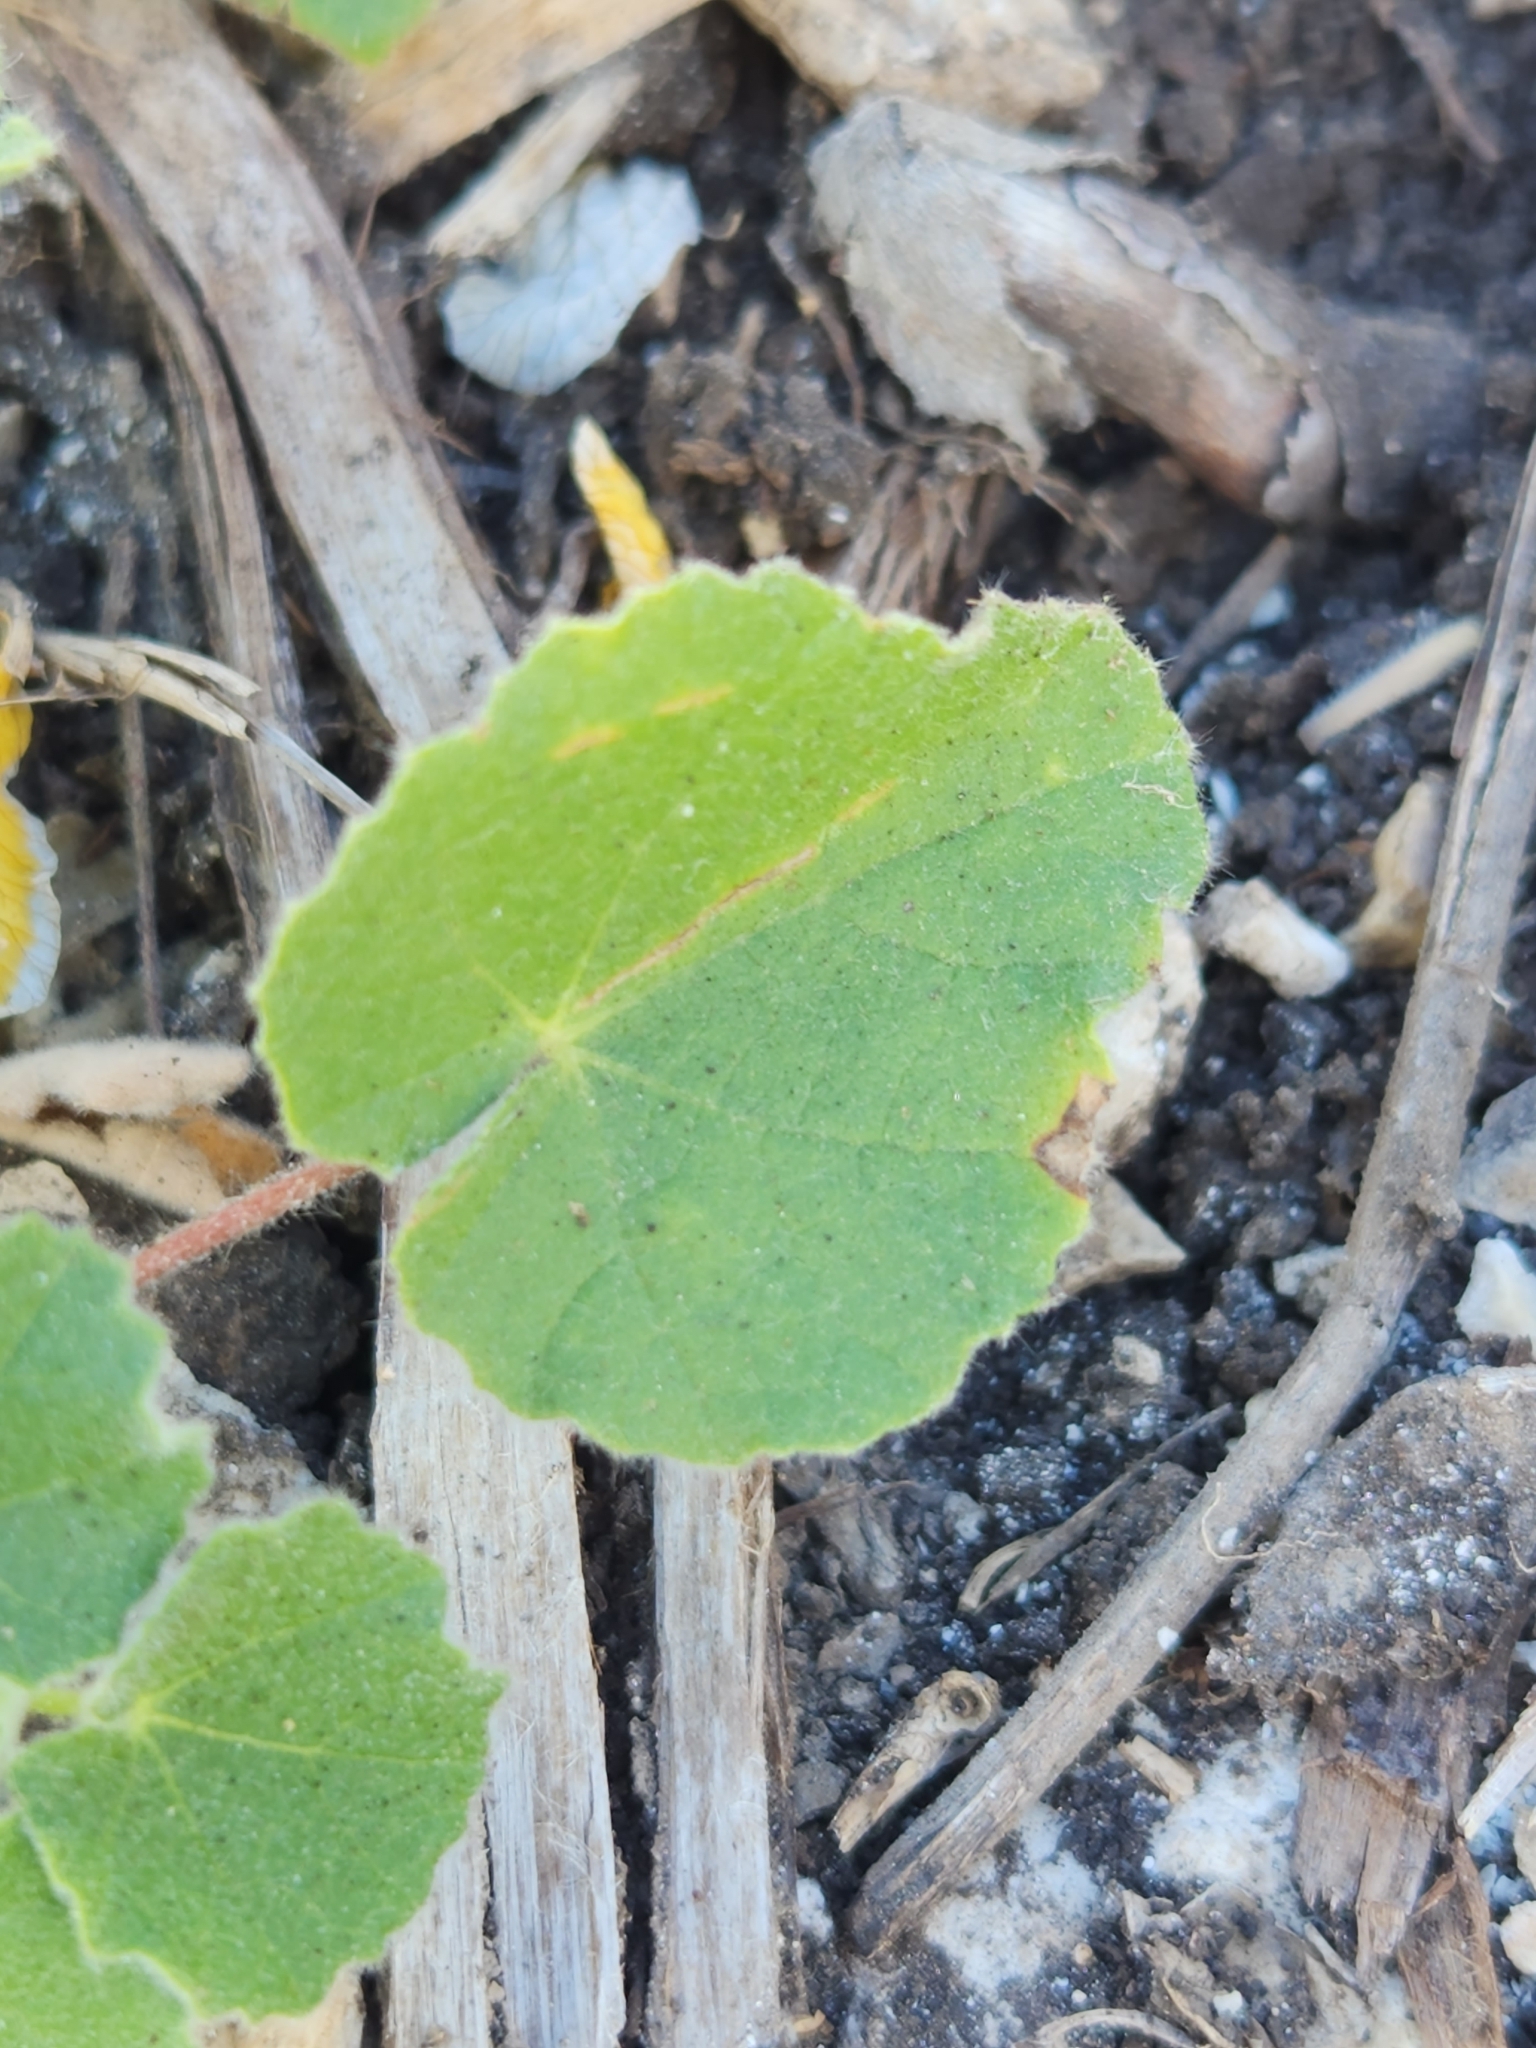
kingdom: Plantae
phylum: Tracheophyta
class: Magnoliopsida
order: Malvales
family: Malvaceae
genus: Abutilon
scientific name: Abutilon wrightii
